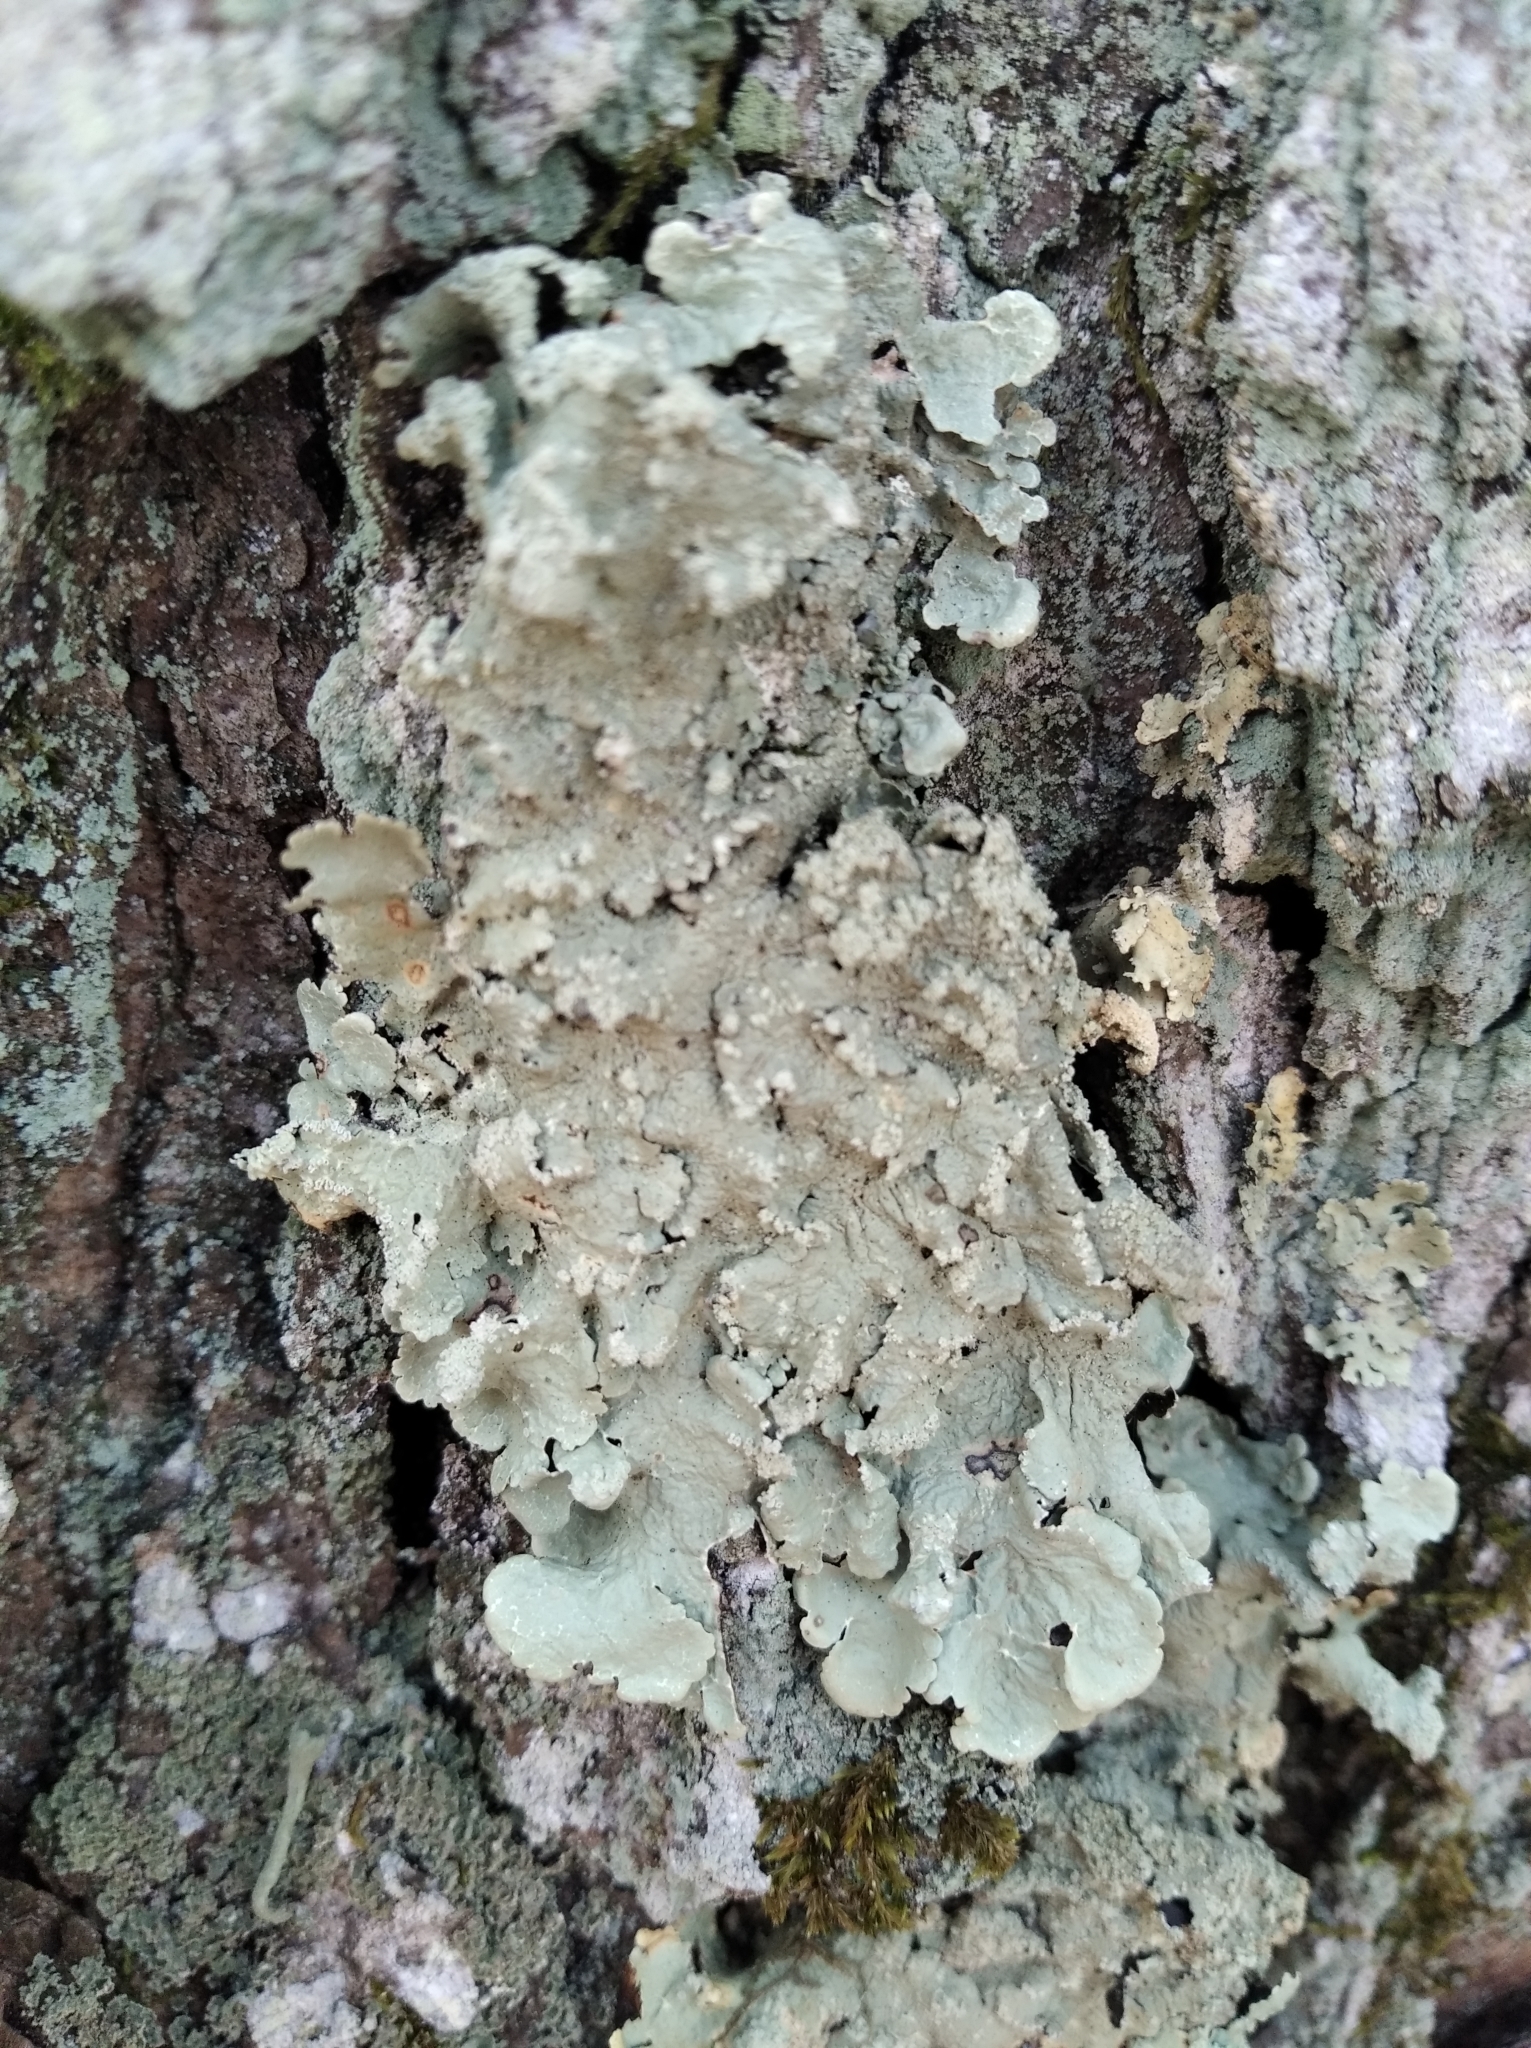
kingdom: Fungi
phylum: Ascomycota
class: Lecanoromycetes
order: Lecanorales
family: Parmeliaceae
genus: Flavoparmelia
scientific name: Flavoparmelia caperata
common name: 40-mile per hour lichen
